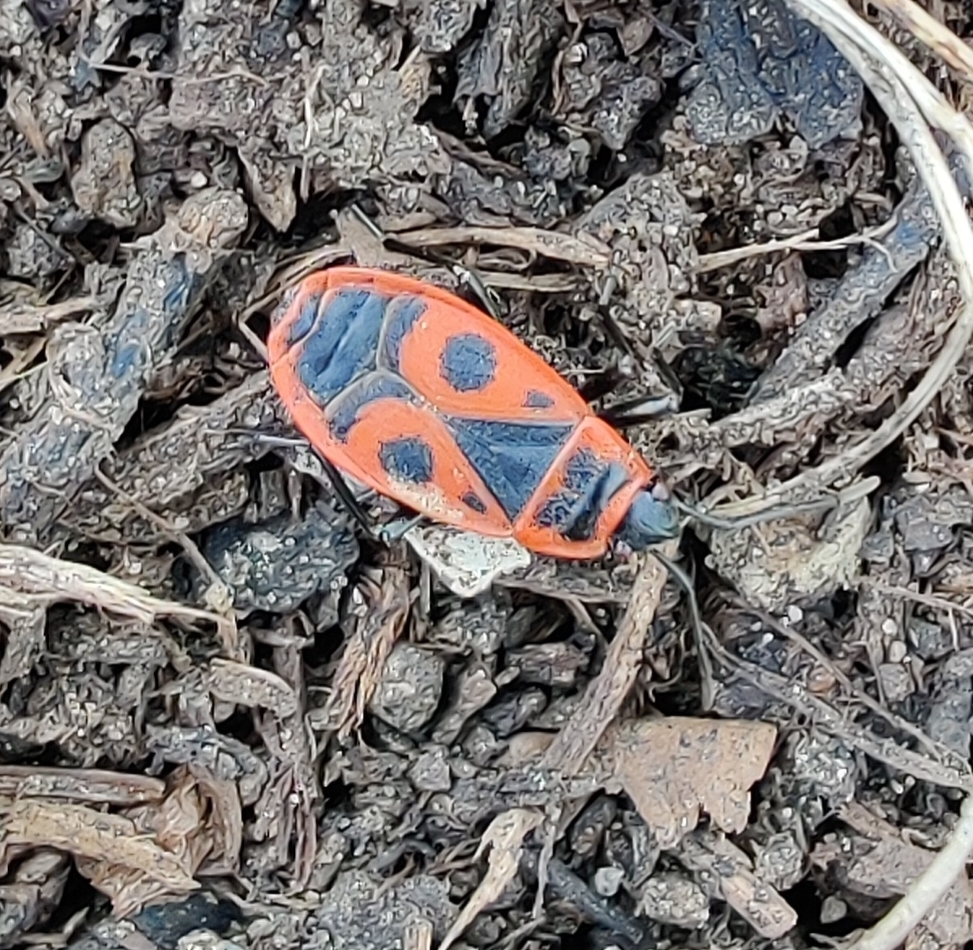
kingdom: Animalia
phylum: Arthropoda
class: Insecta
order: Hemiptera
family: Pyrrhocoridae
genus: Pyrrhocoris
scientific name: Pyrrhocoris apterus
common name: Firebug
